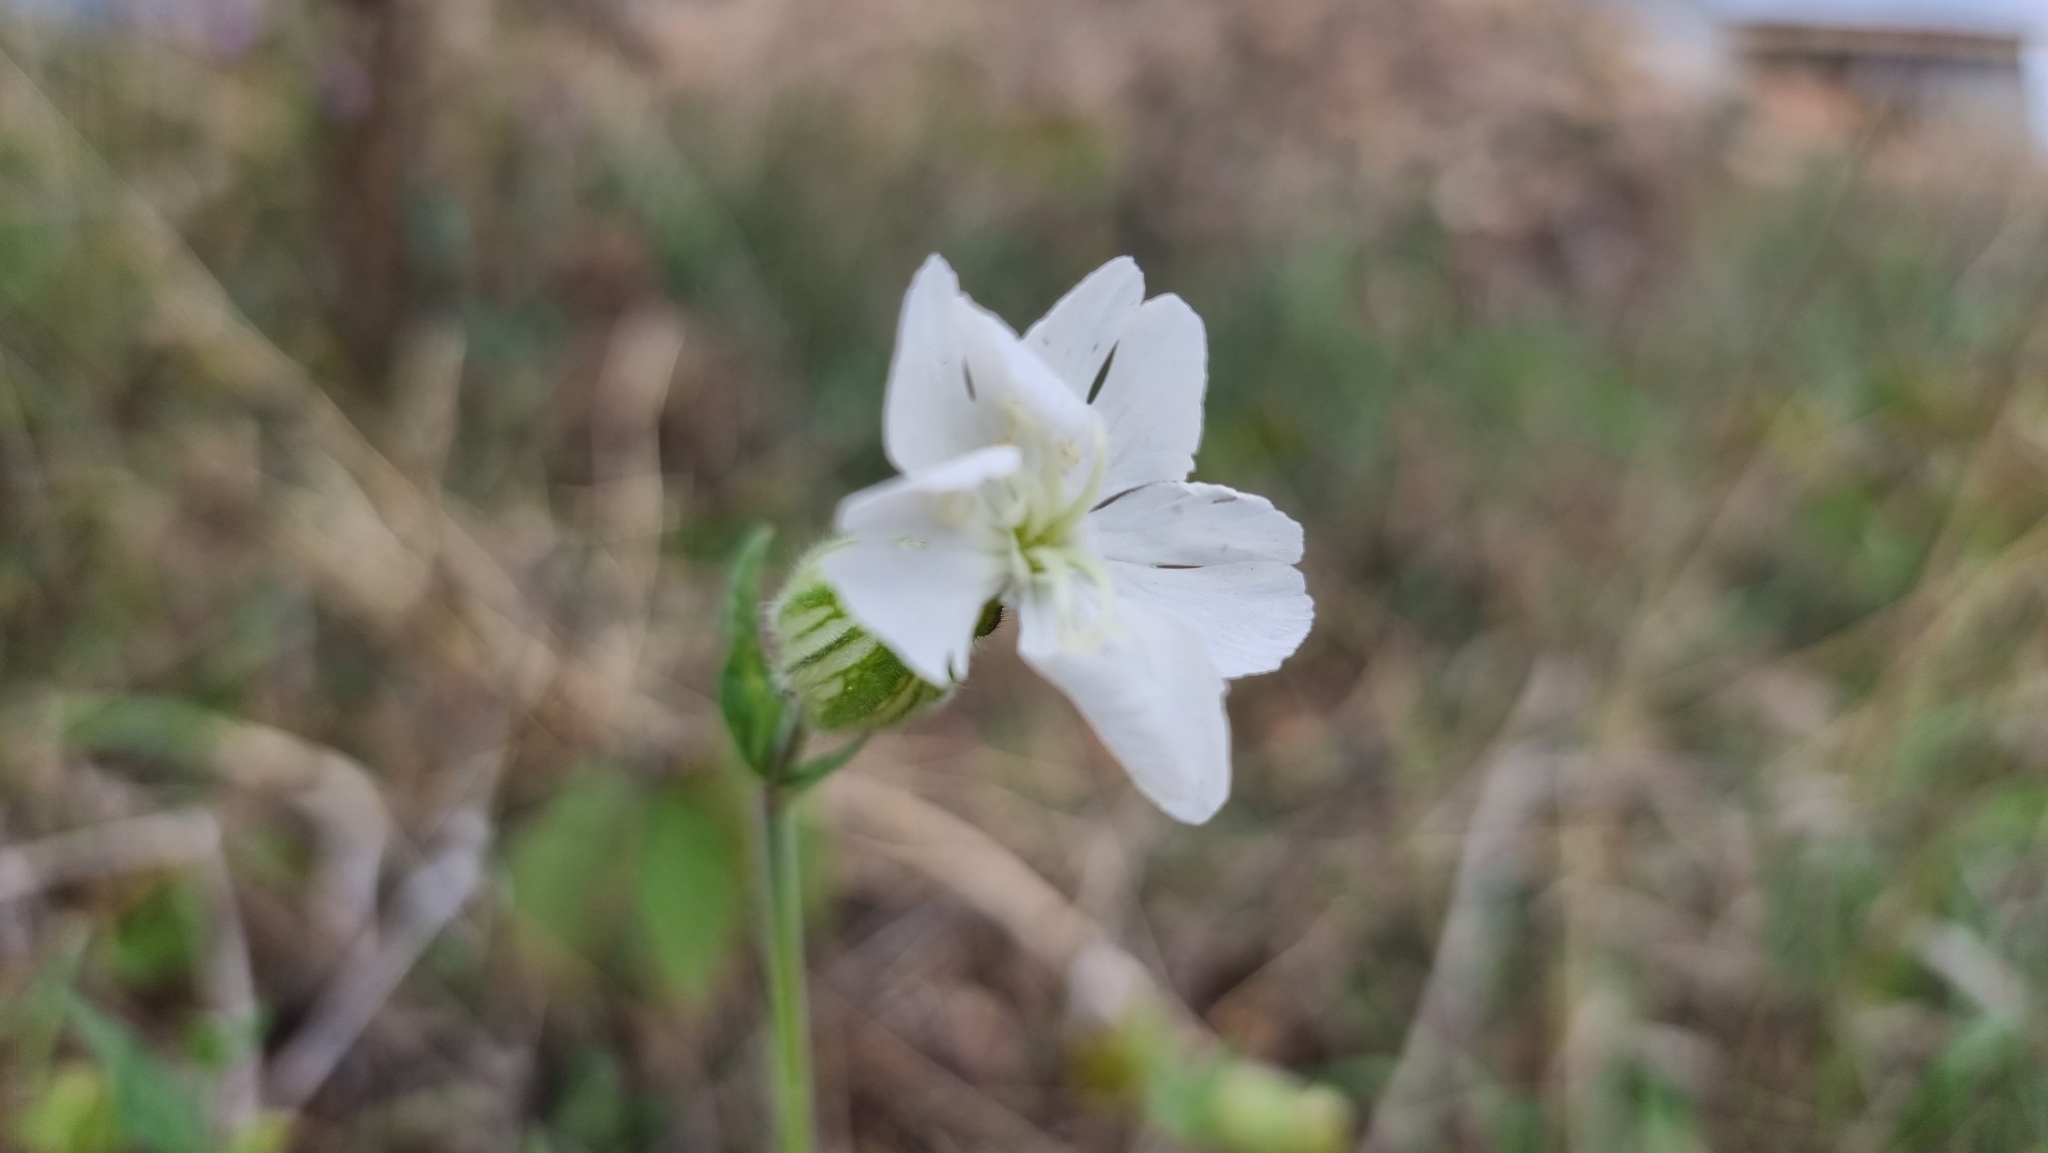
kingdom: Plantae
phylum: Tracheophyta
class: Magnoliopsida
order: Caryophyllales
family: Caryophyllaceae
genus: Silene
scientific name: Silene latifolia
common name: White campion
